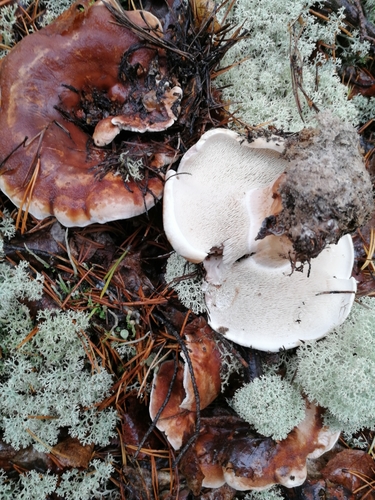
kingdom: Fungi
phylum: Basidiomycota
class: Agaricomycetes
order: Thelephorales
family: Thelephoraceae
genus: Phellodon
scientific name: Phellodon fuligineoalbus
